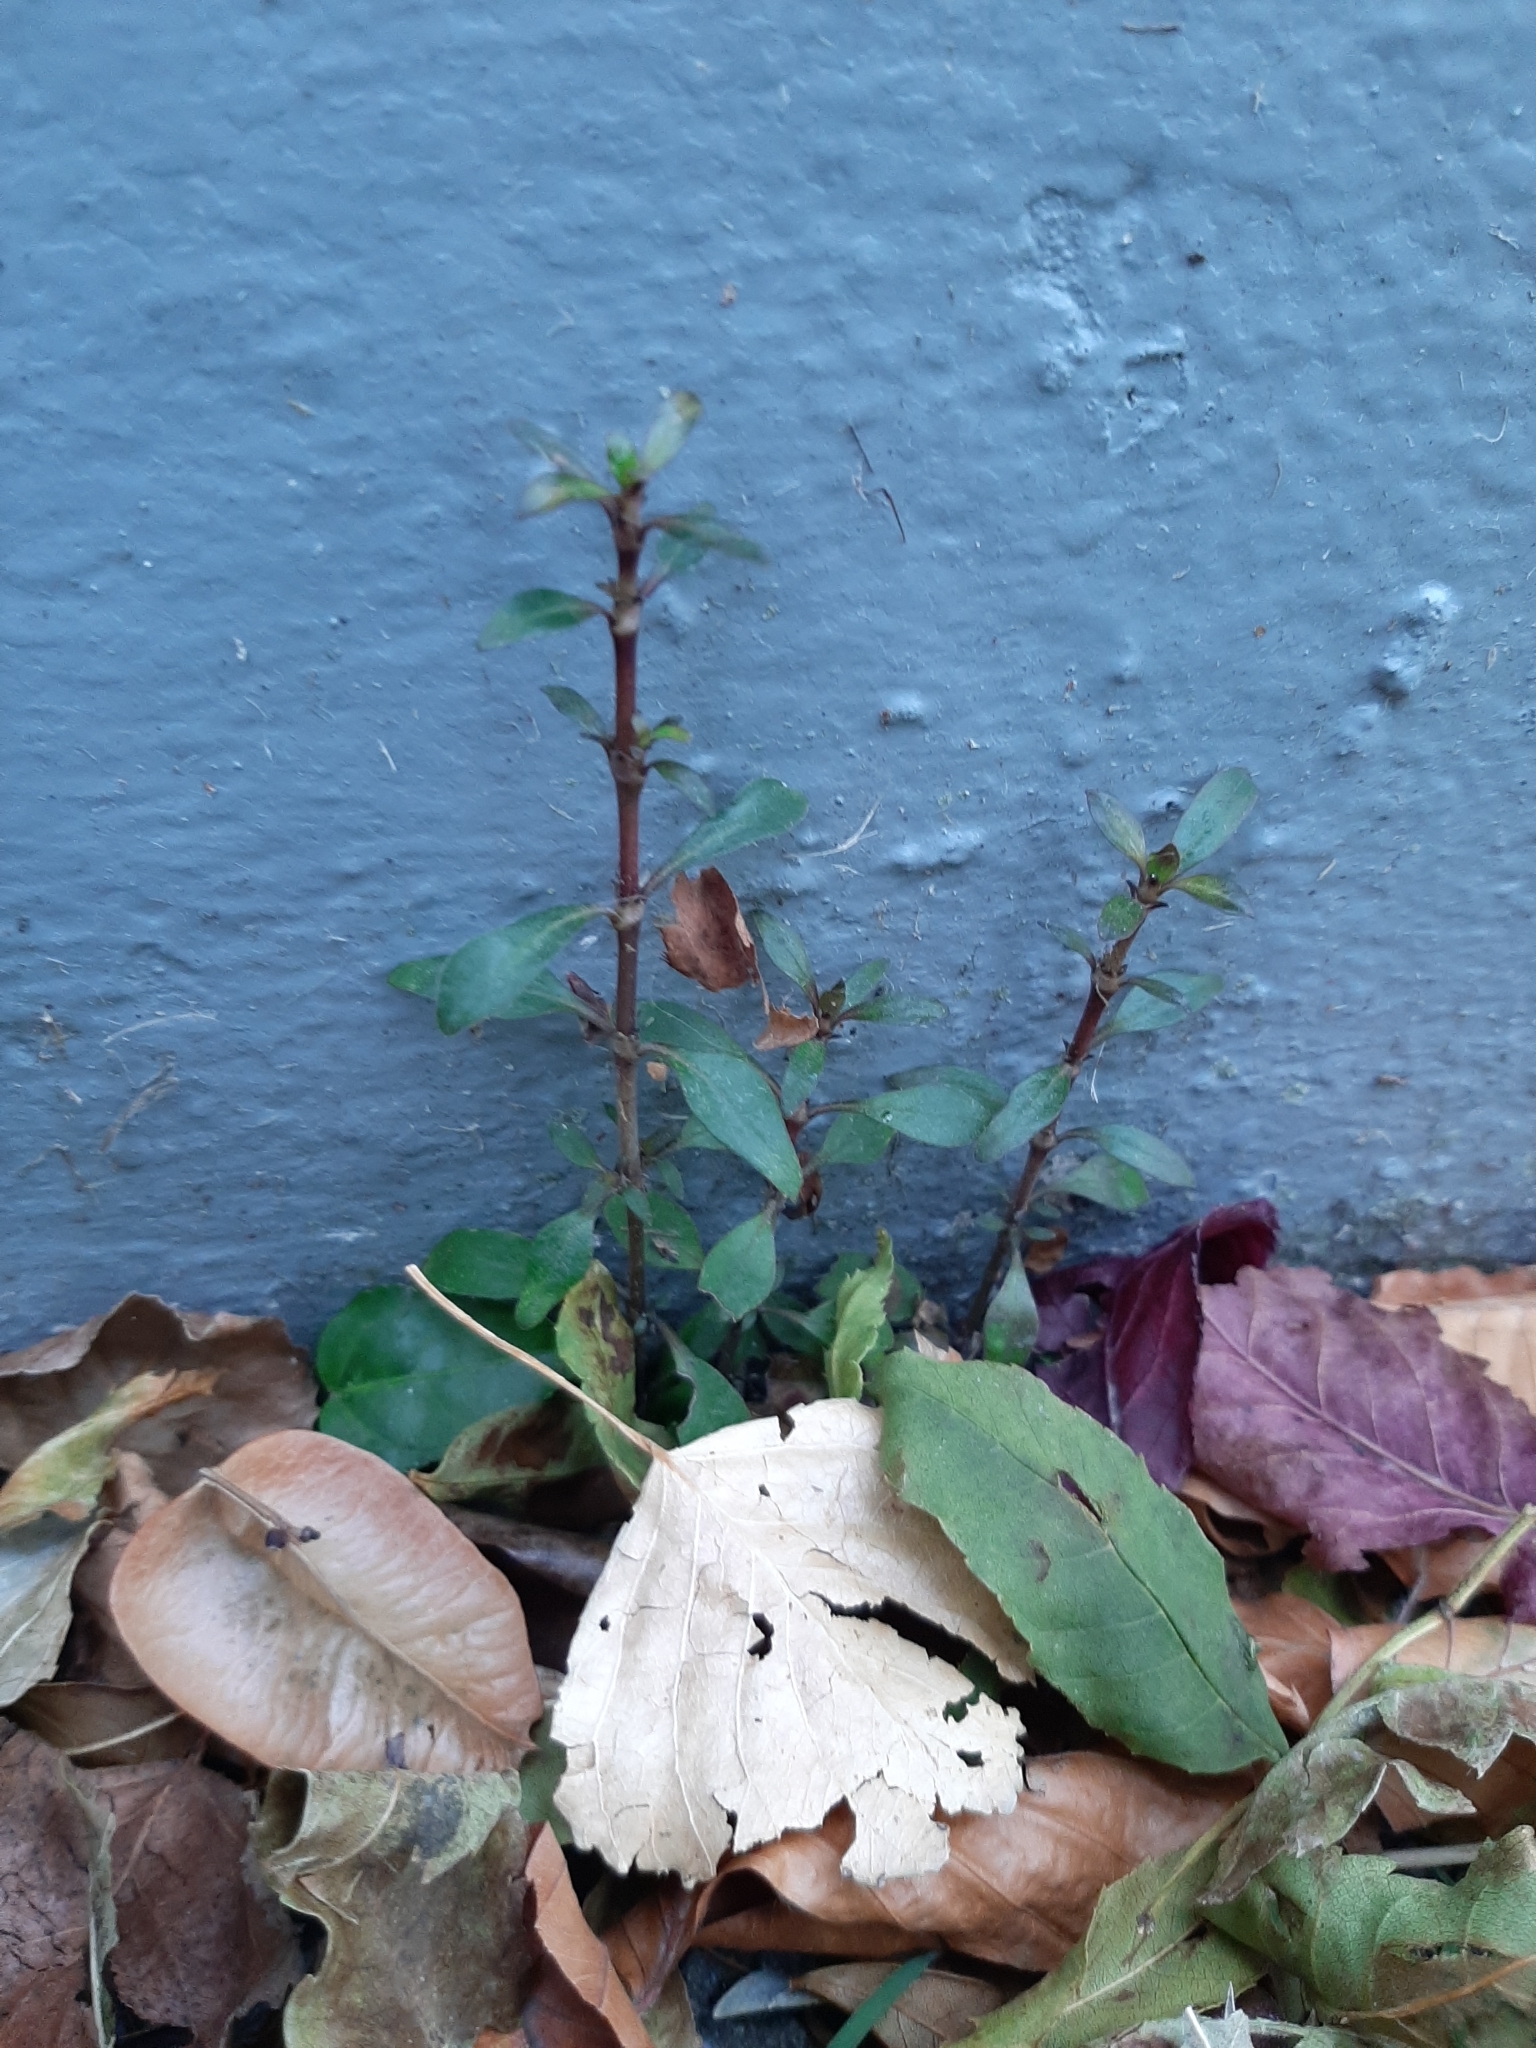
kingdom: Plantae
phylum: Tracheophyta
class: Magnoliopsida
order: Gentianales
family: Rubiaceae
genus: Coprosma
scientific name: Coprosma cunninghamii
